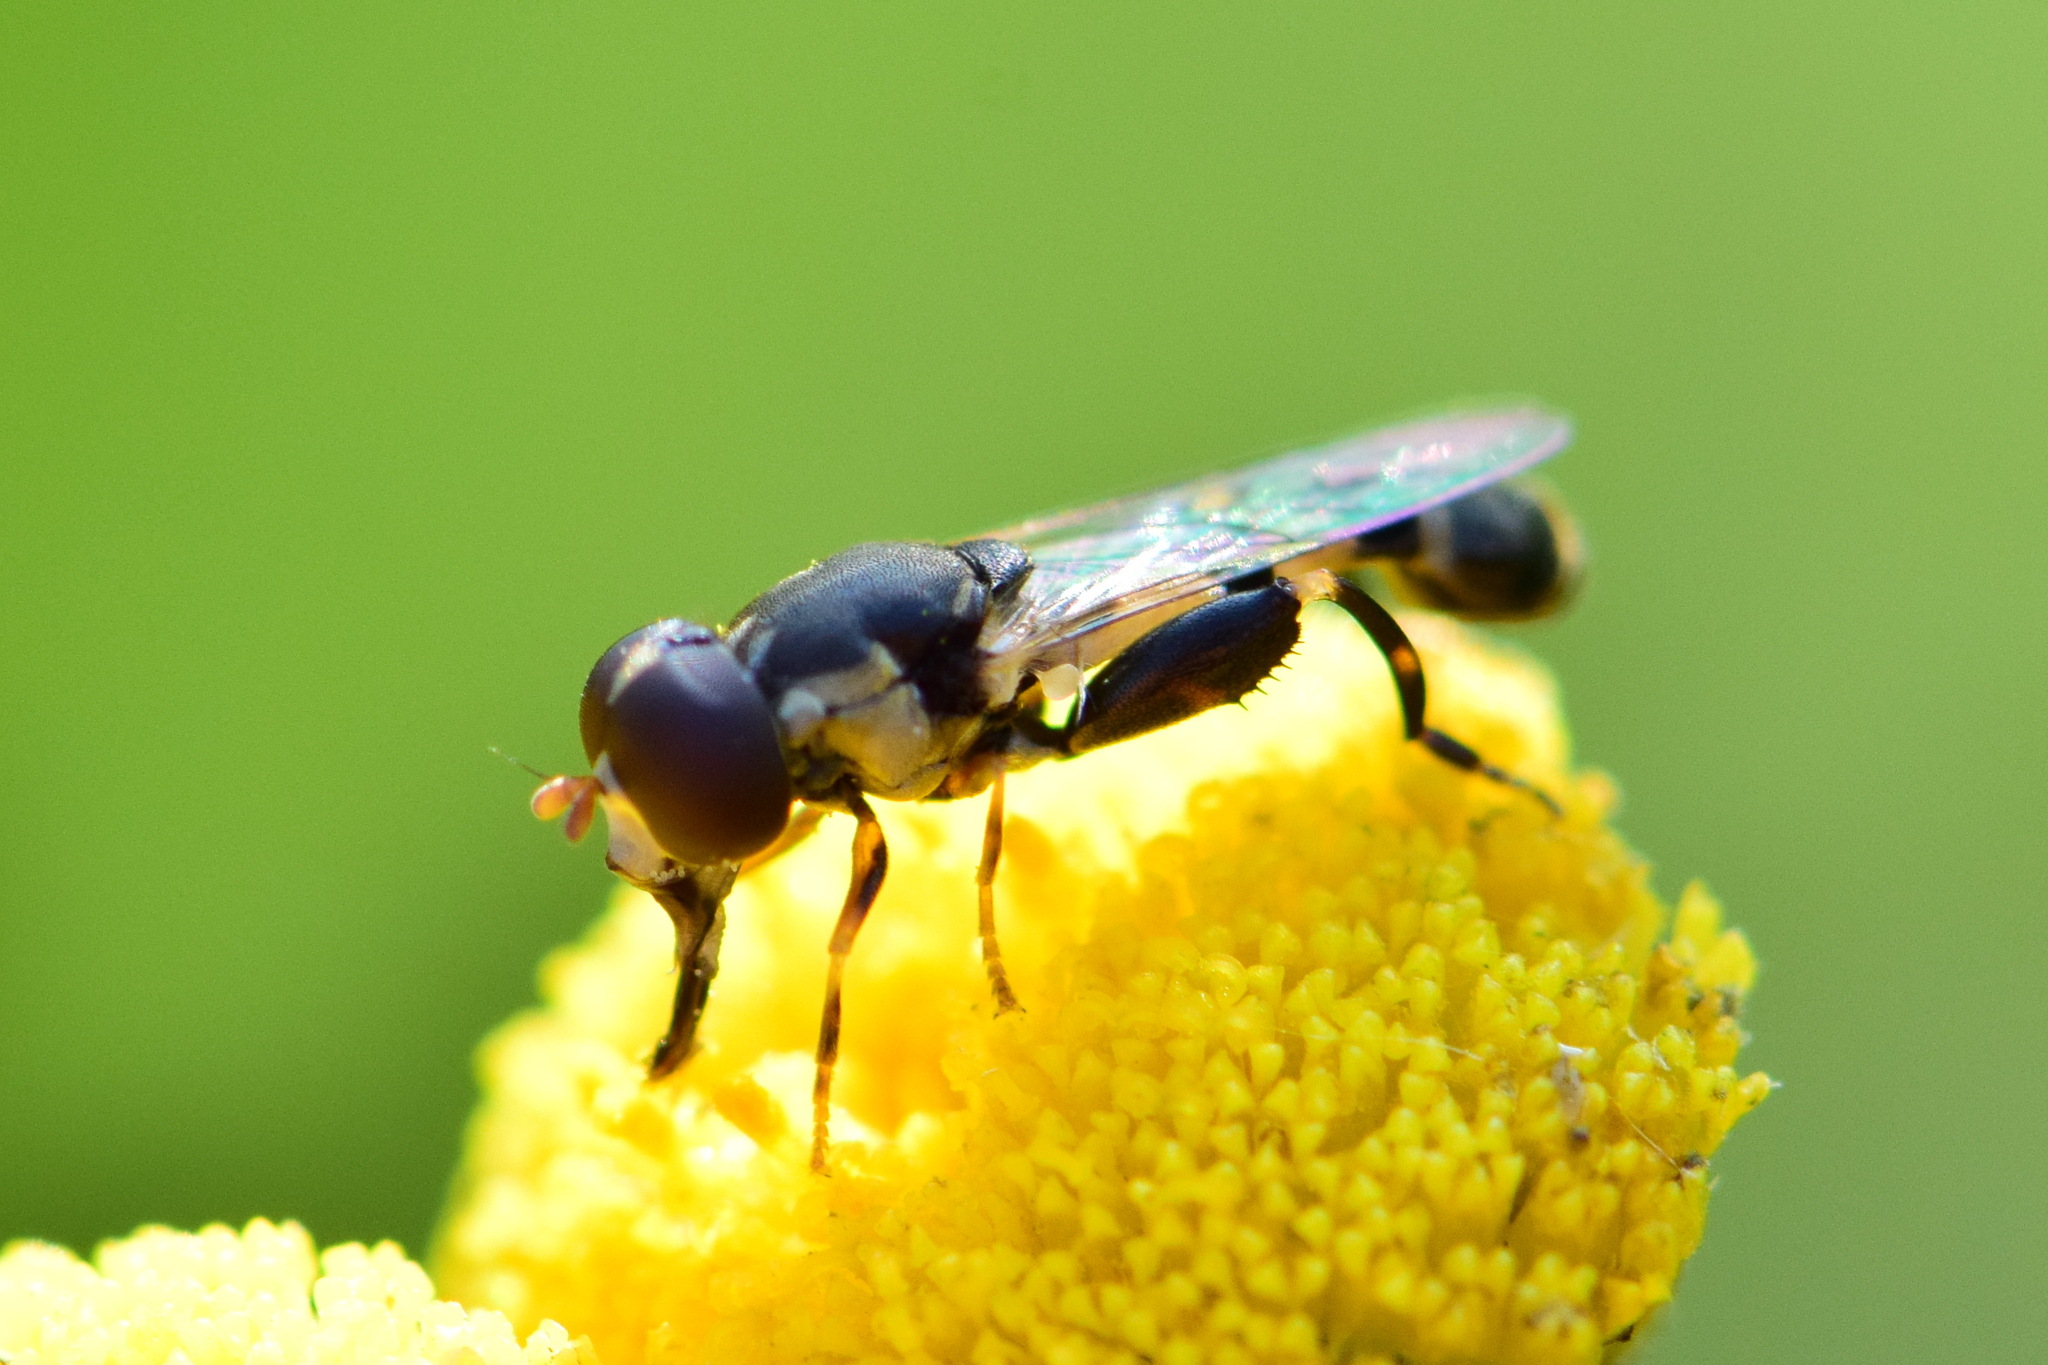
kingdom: Animalia
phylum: Arthropoda
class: Insecta
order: Diptera
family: Syrphidae
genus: Syritta
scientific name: Syritta pipiens
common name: Hover fly
